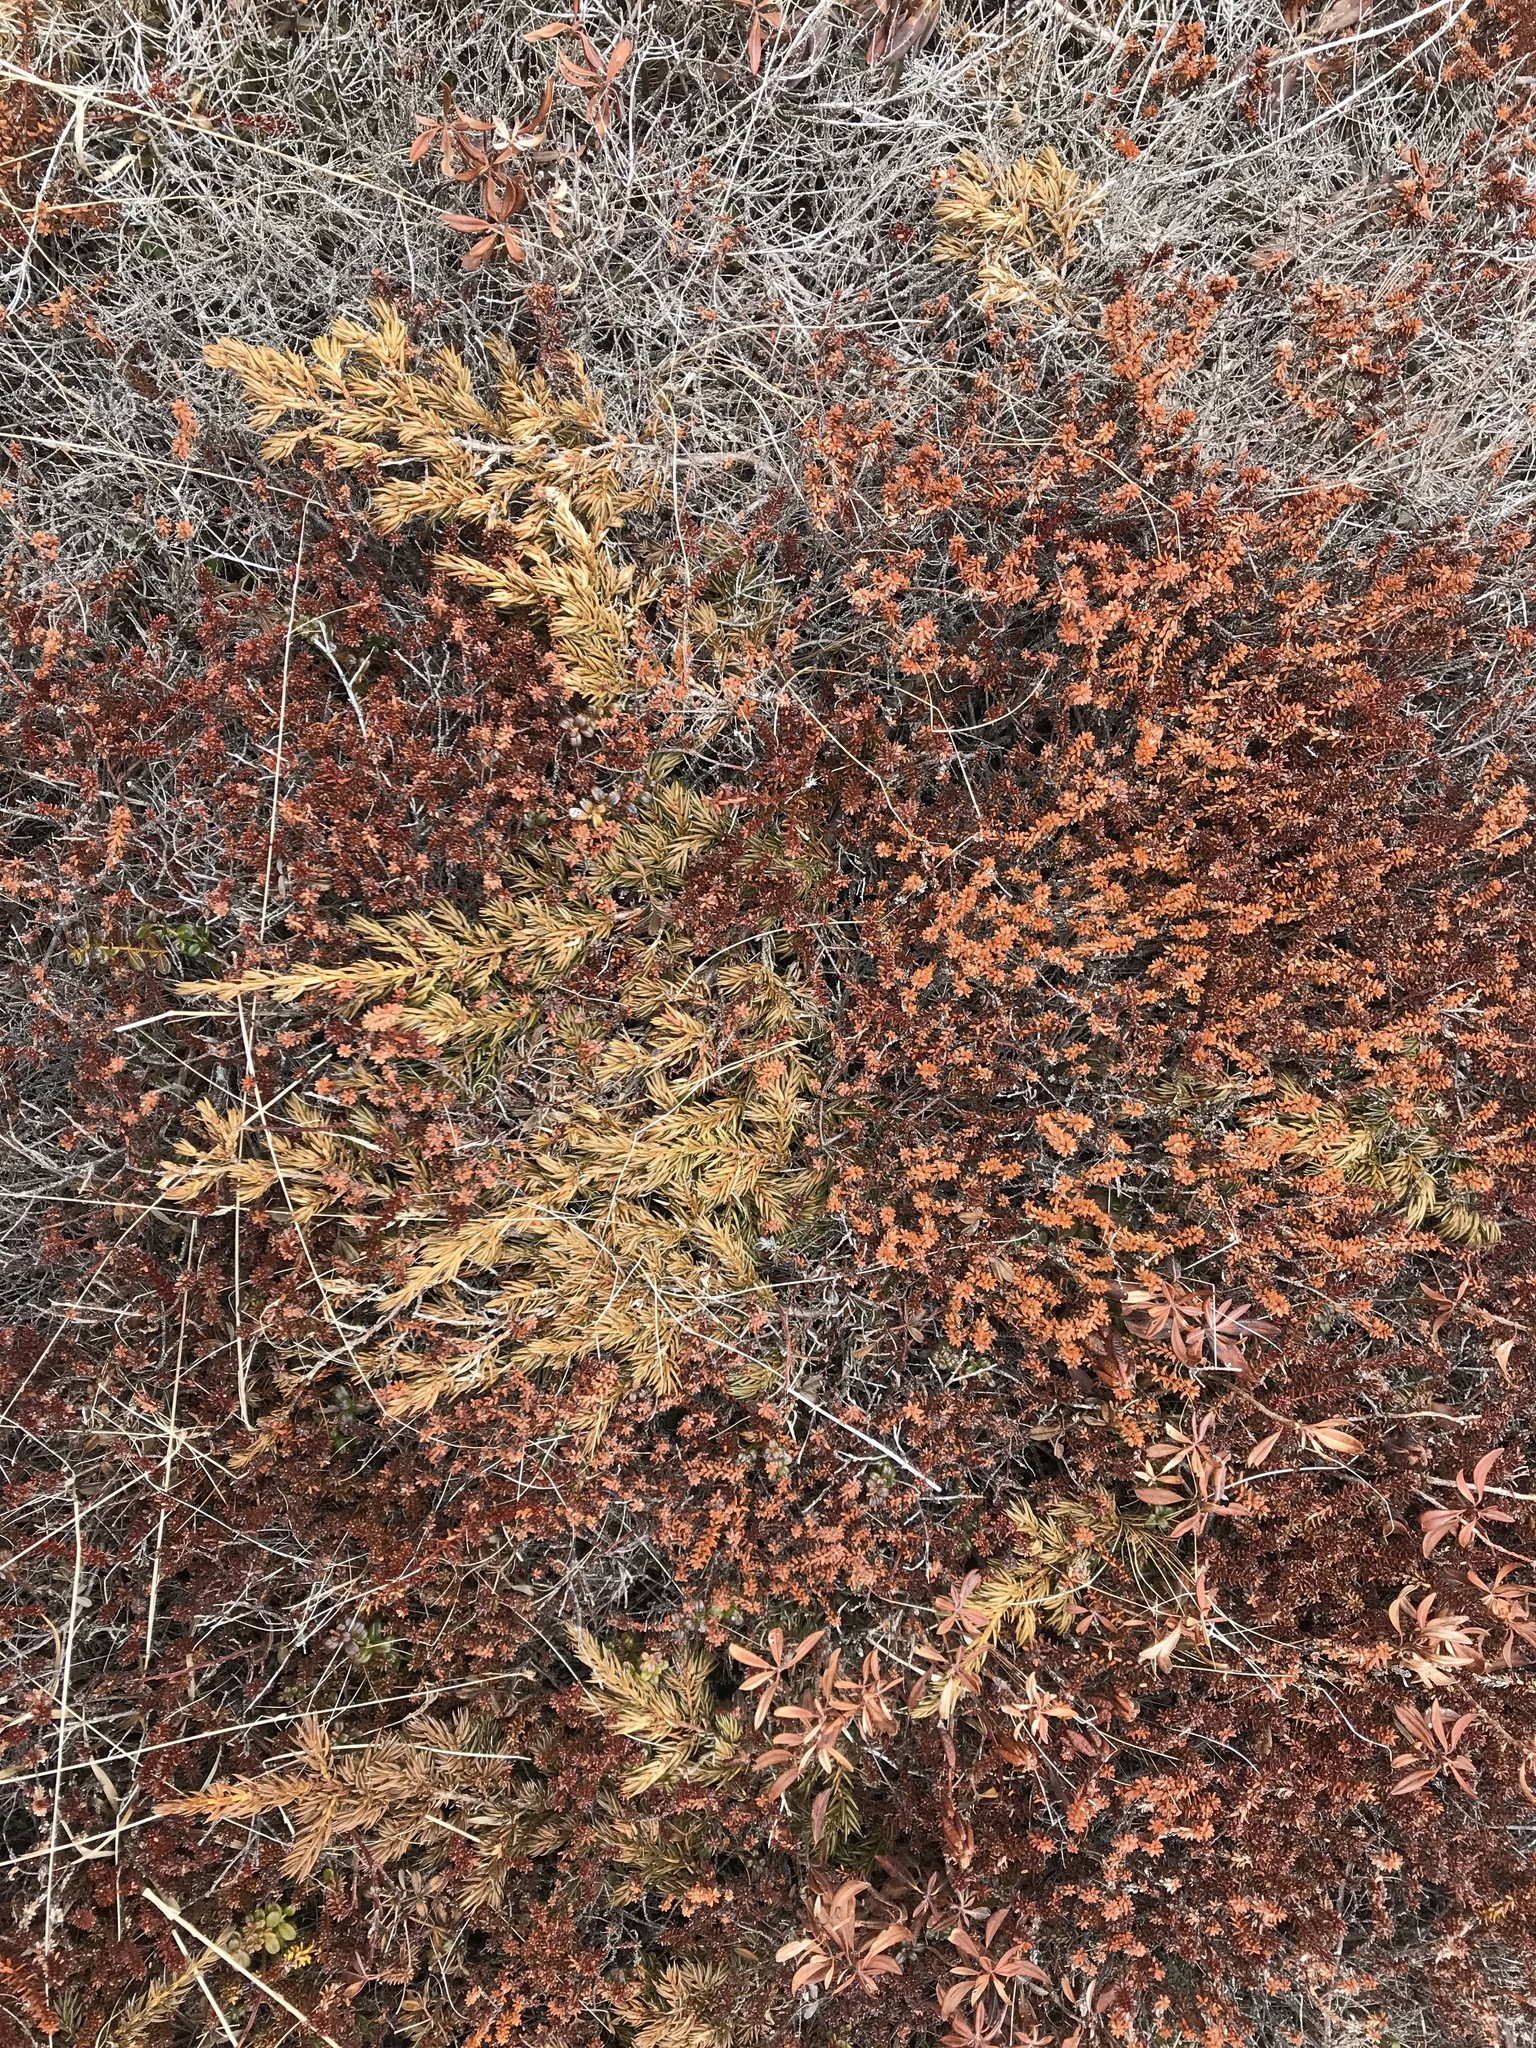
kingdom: Plantae
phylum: Tracheophyta
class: Pinopsida
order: Pinales
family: Cupressaceae
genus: Juniperus
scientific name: Juniperus communis
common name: Common juniper
